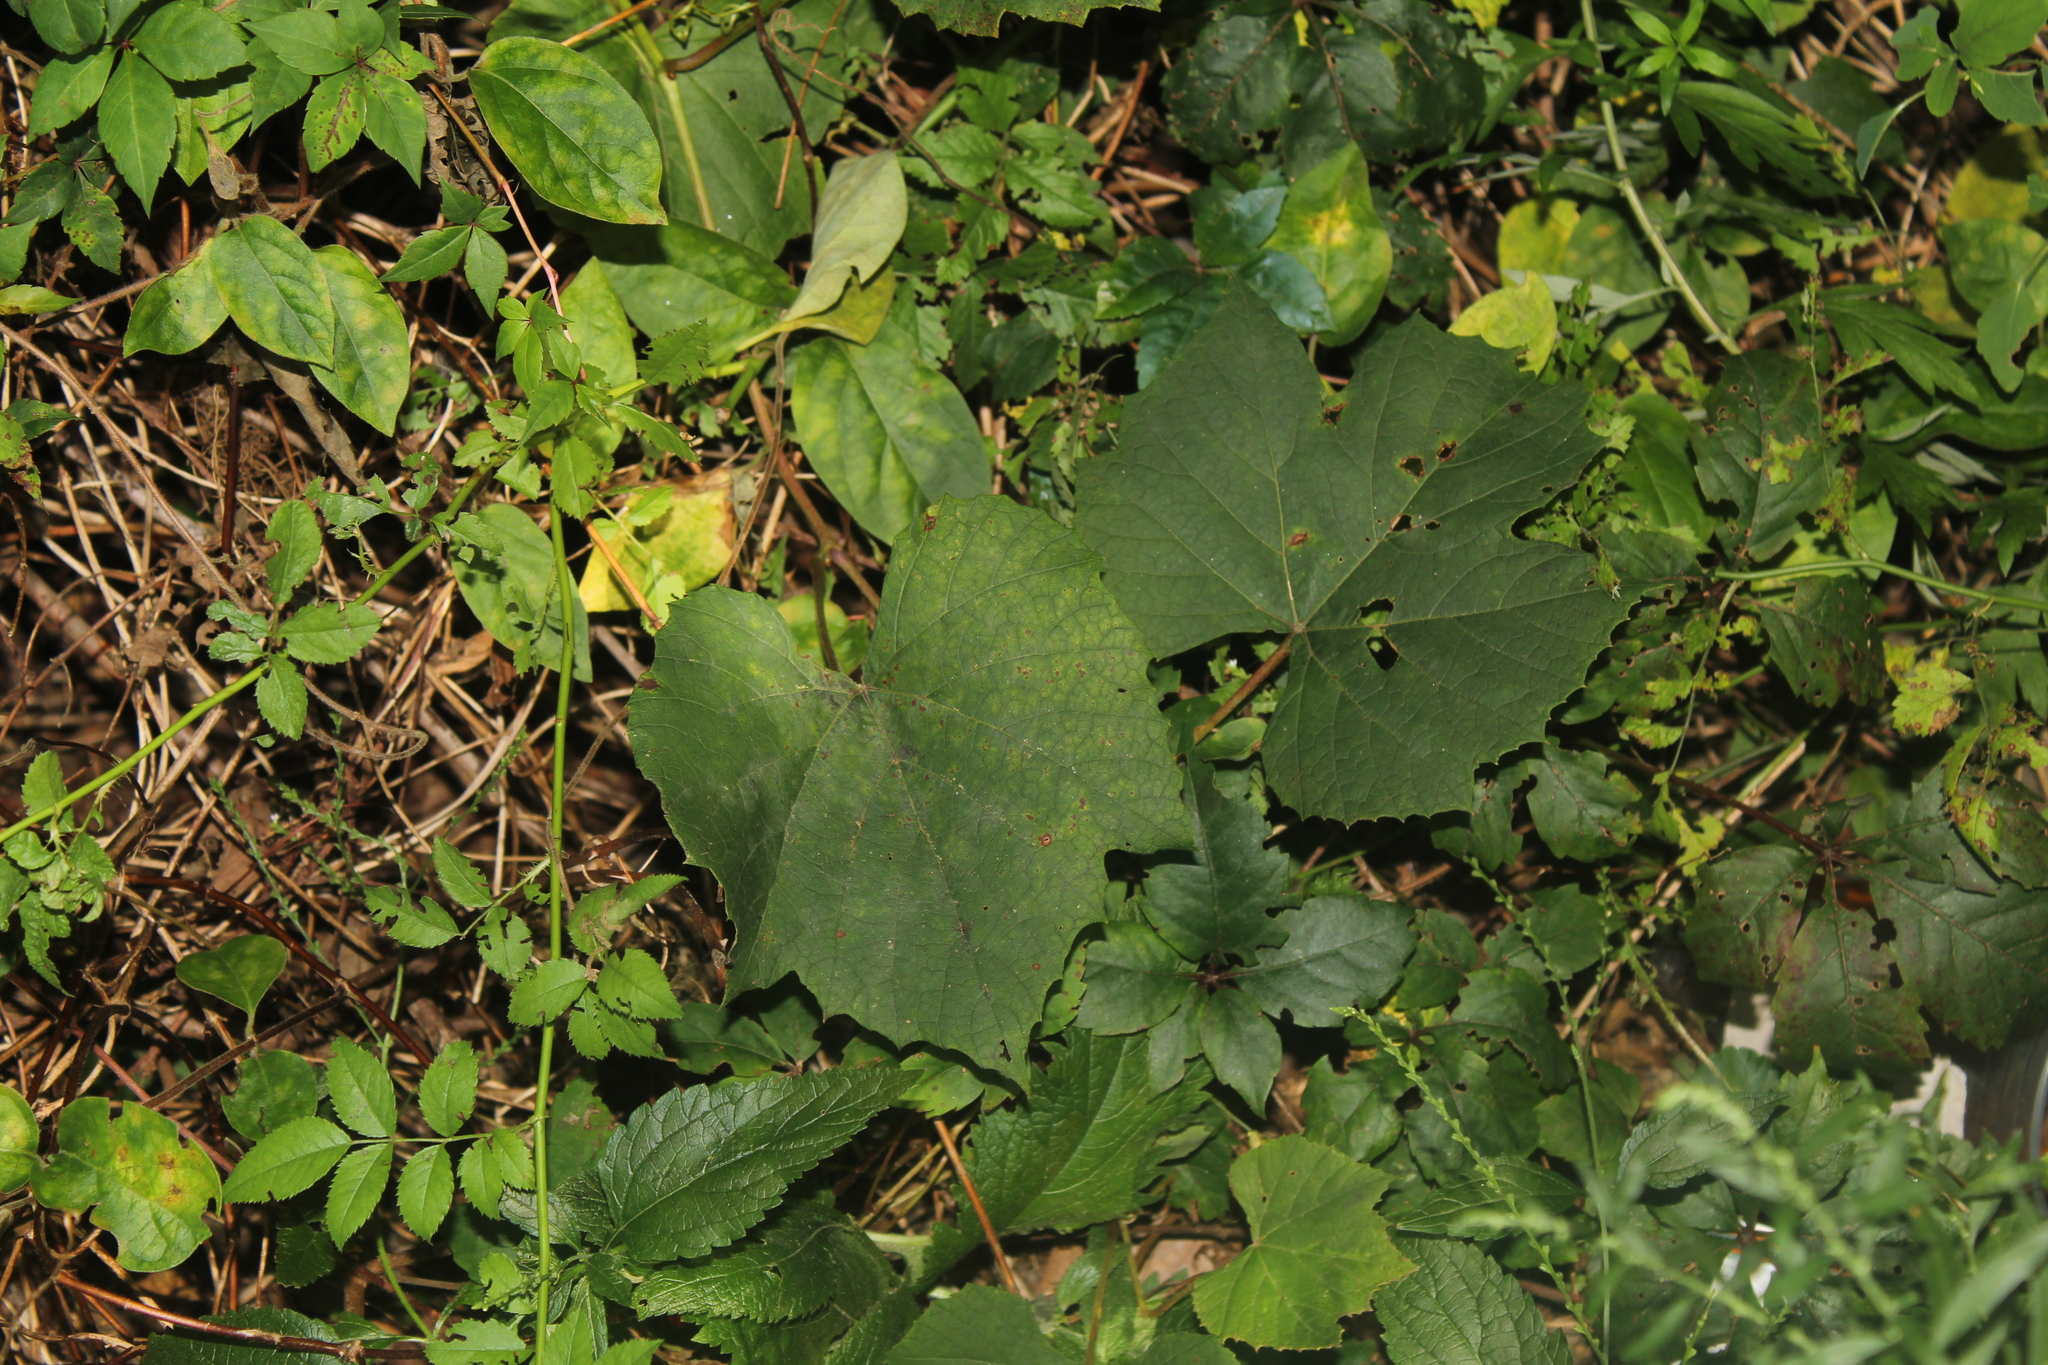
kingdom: Plantae
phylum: Tracheophyta
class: Magnoliopsida
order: Vitales
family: Vitaceae
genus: Vitis
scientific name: Vitis labrusca
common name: Concord grape
